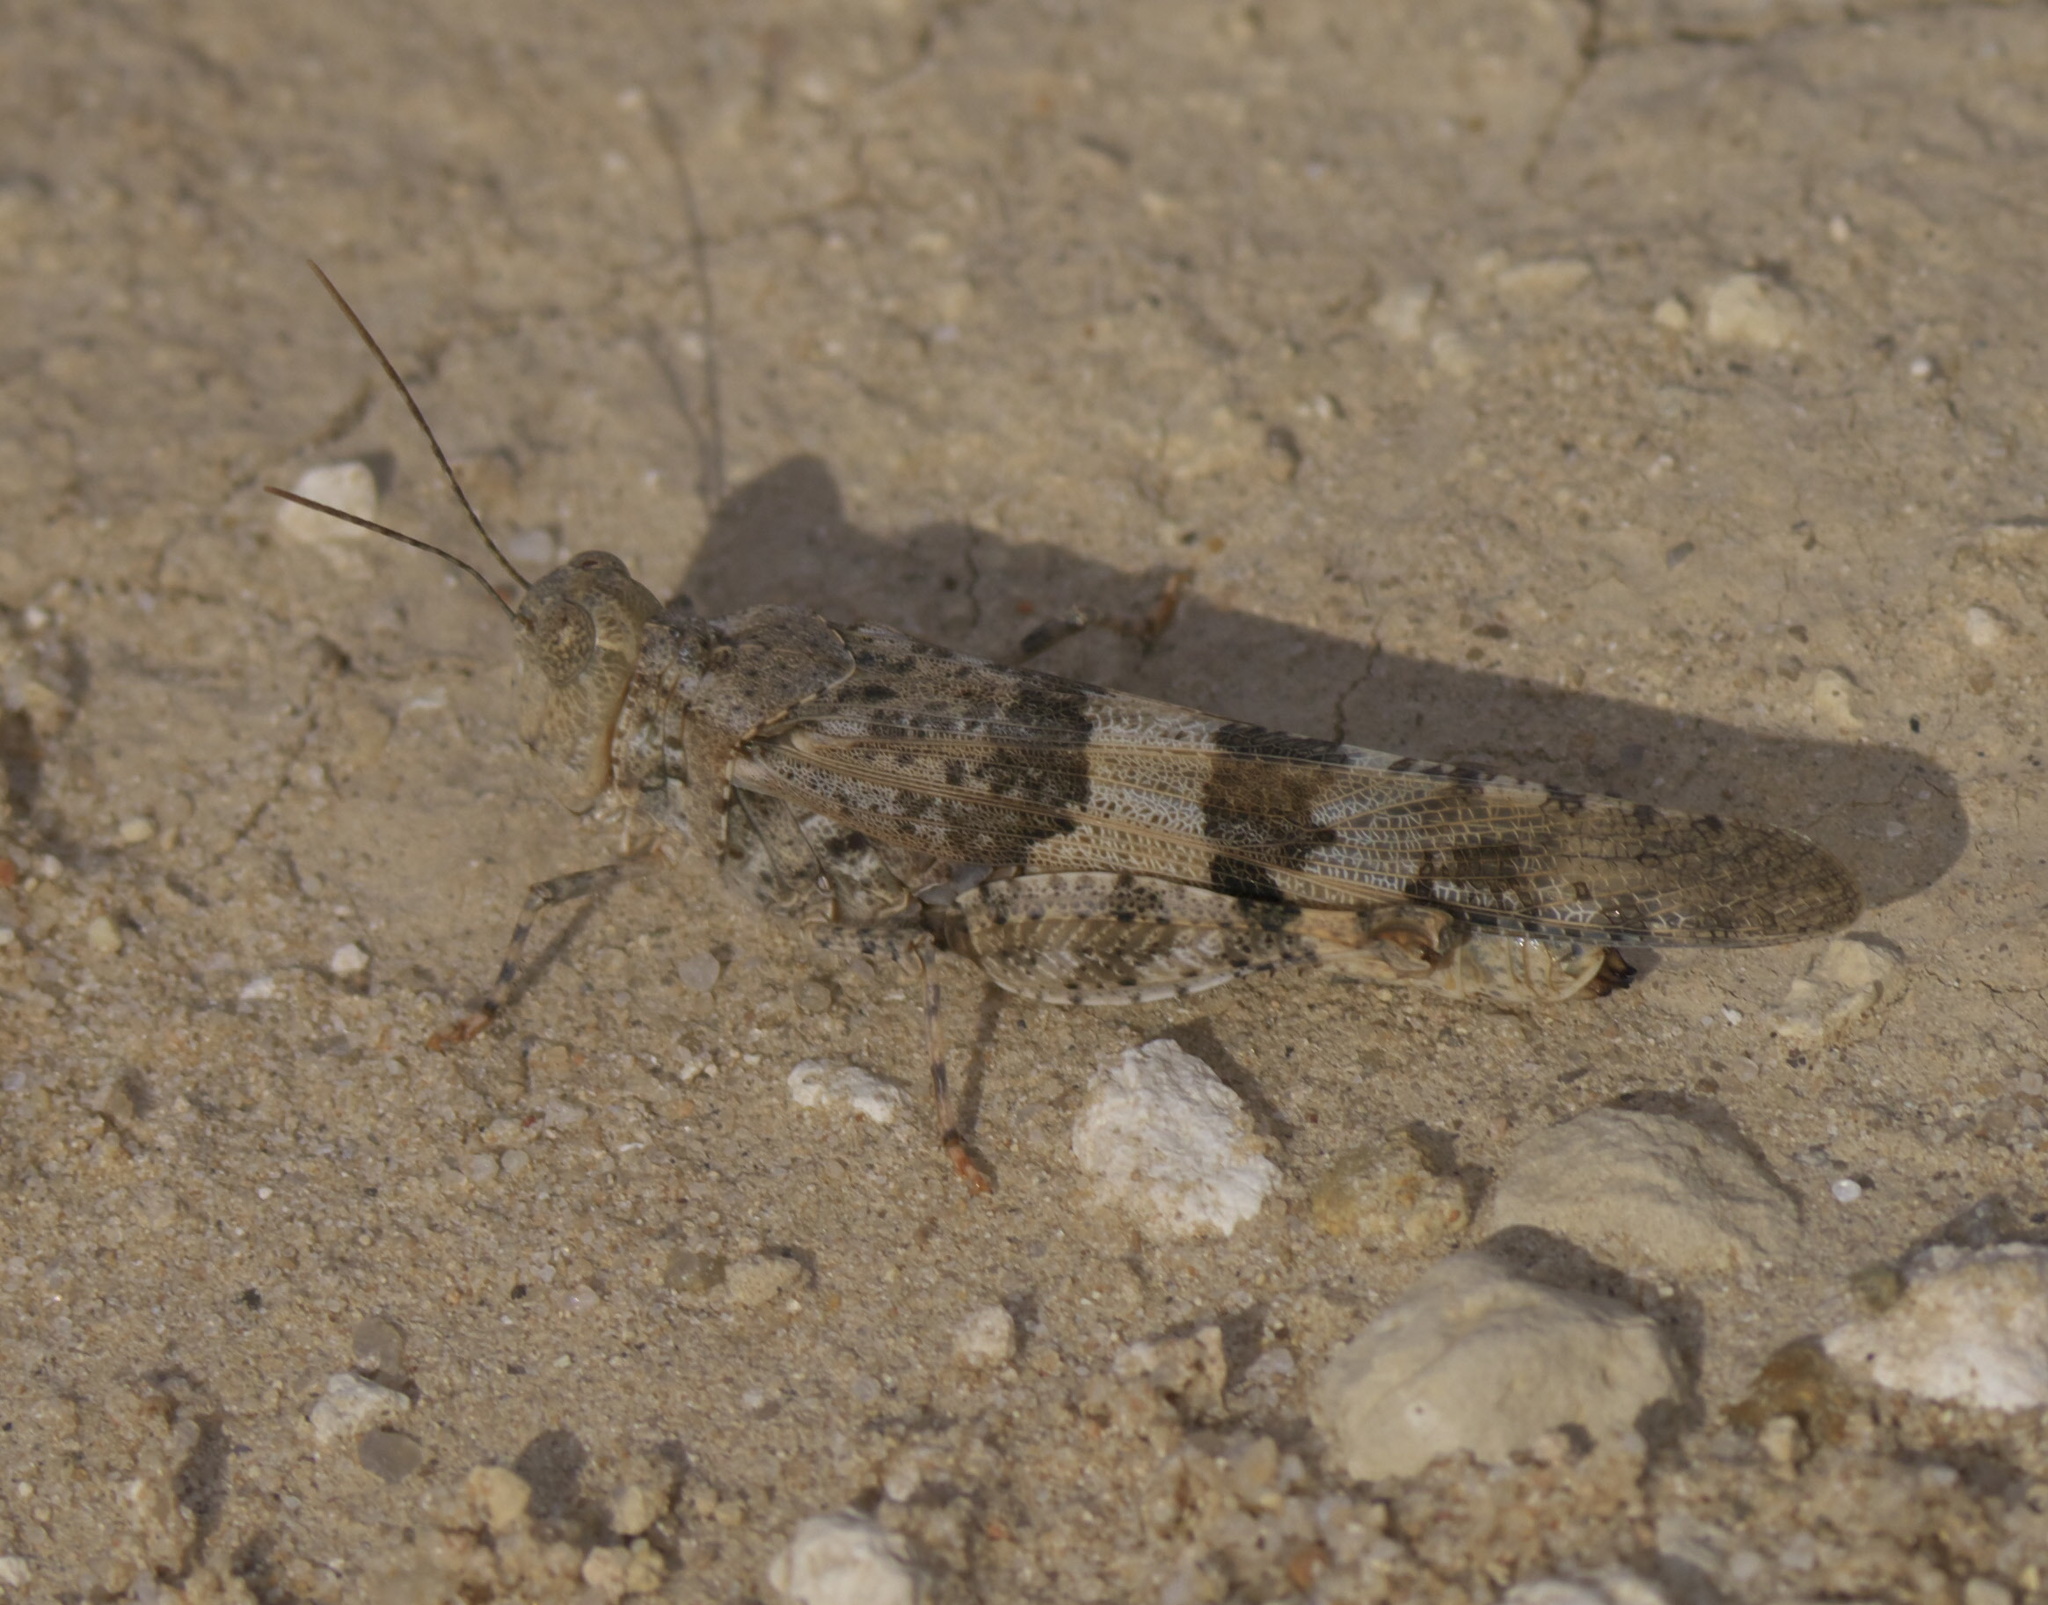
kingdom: Animalia
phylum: Arthropoda
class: Insecta
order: Orthoptera
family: Acrididae
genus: Trimerotropis
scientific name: Trimerotropis pallidipennis
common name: Pallid-winged grasshopper
